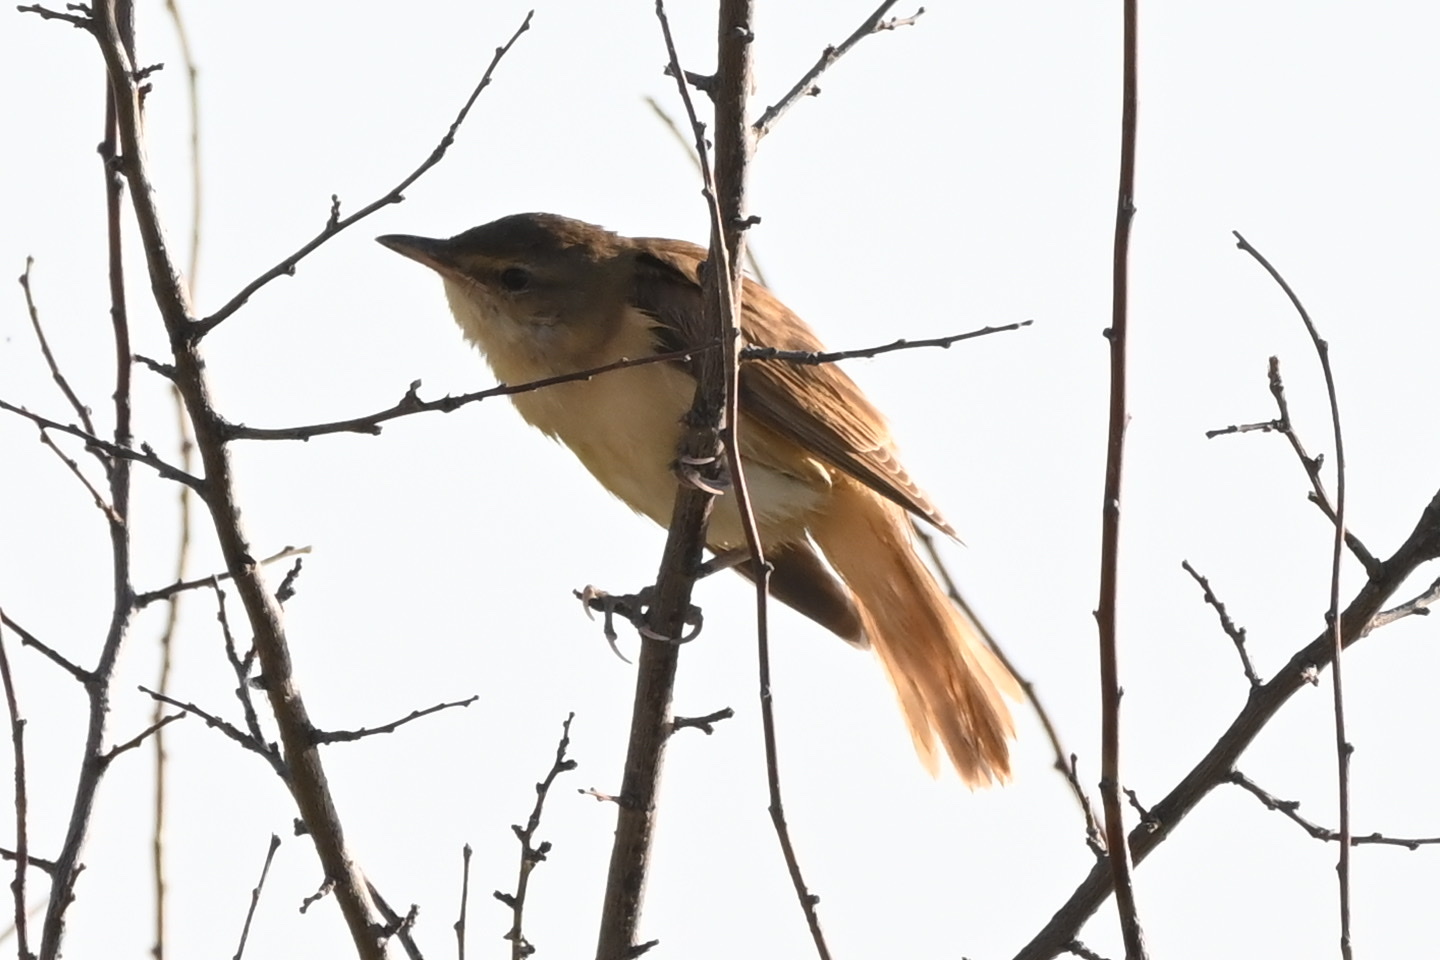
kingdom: Animalia
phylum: Chordata
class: Aves
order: Passeriformes
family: Acrocephalidae
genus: Acrocephalus
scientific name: Acrocephalus arundinaceus
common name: Great reed warbler
